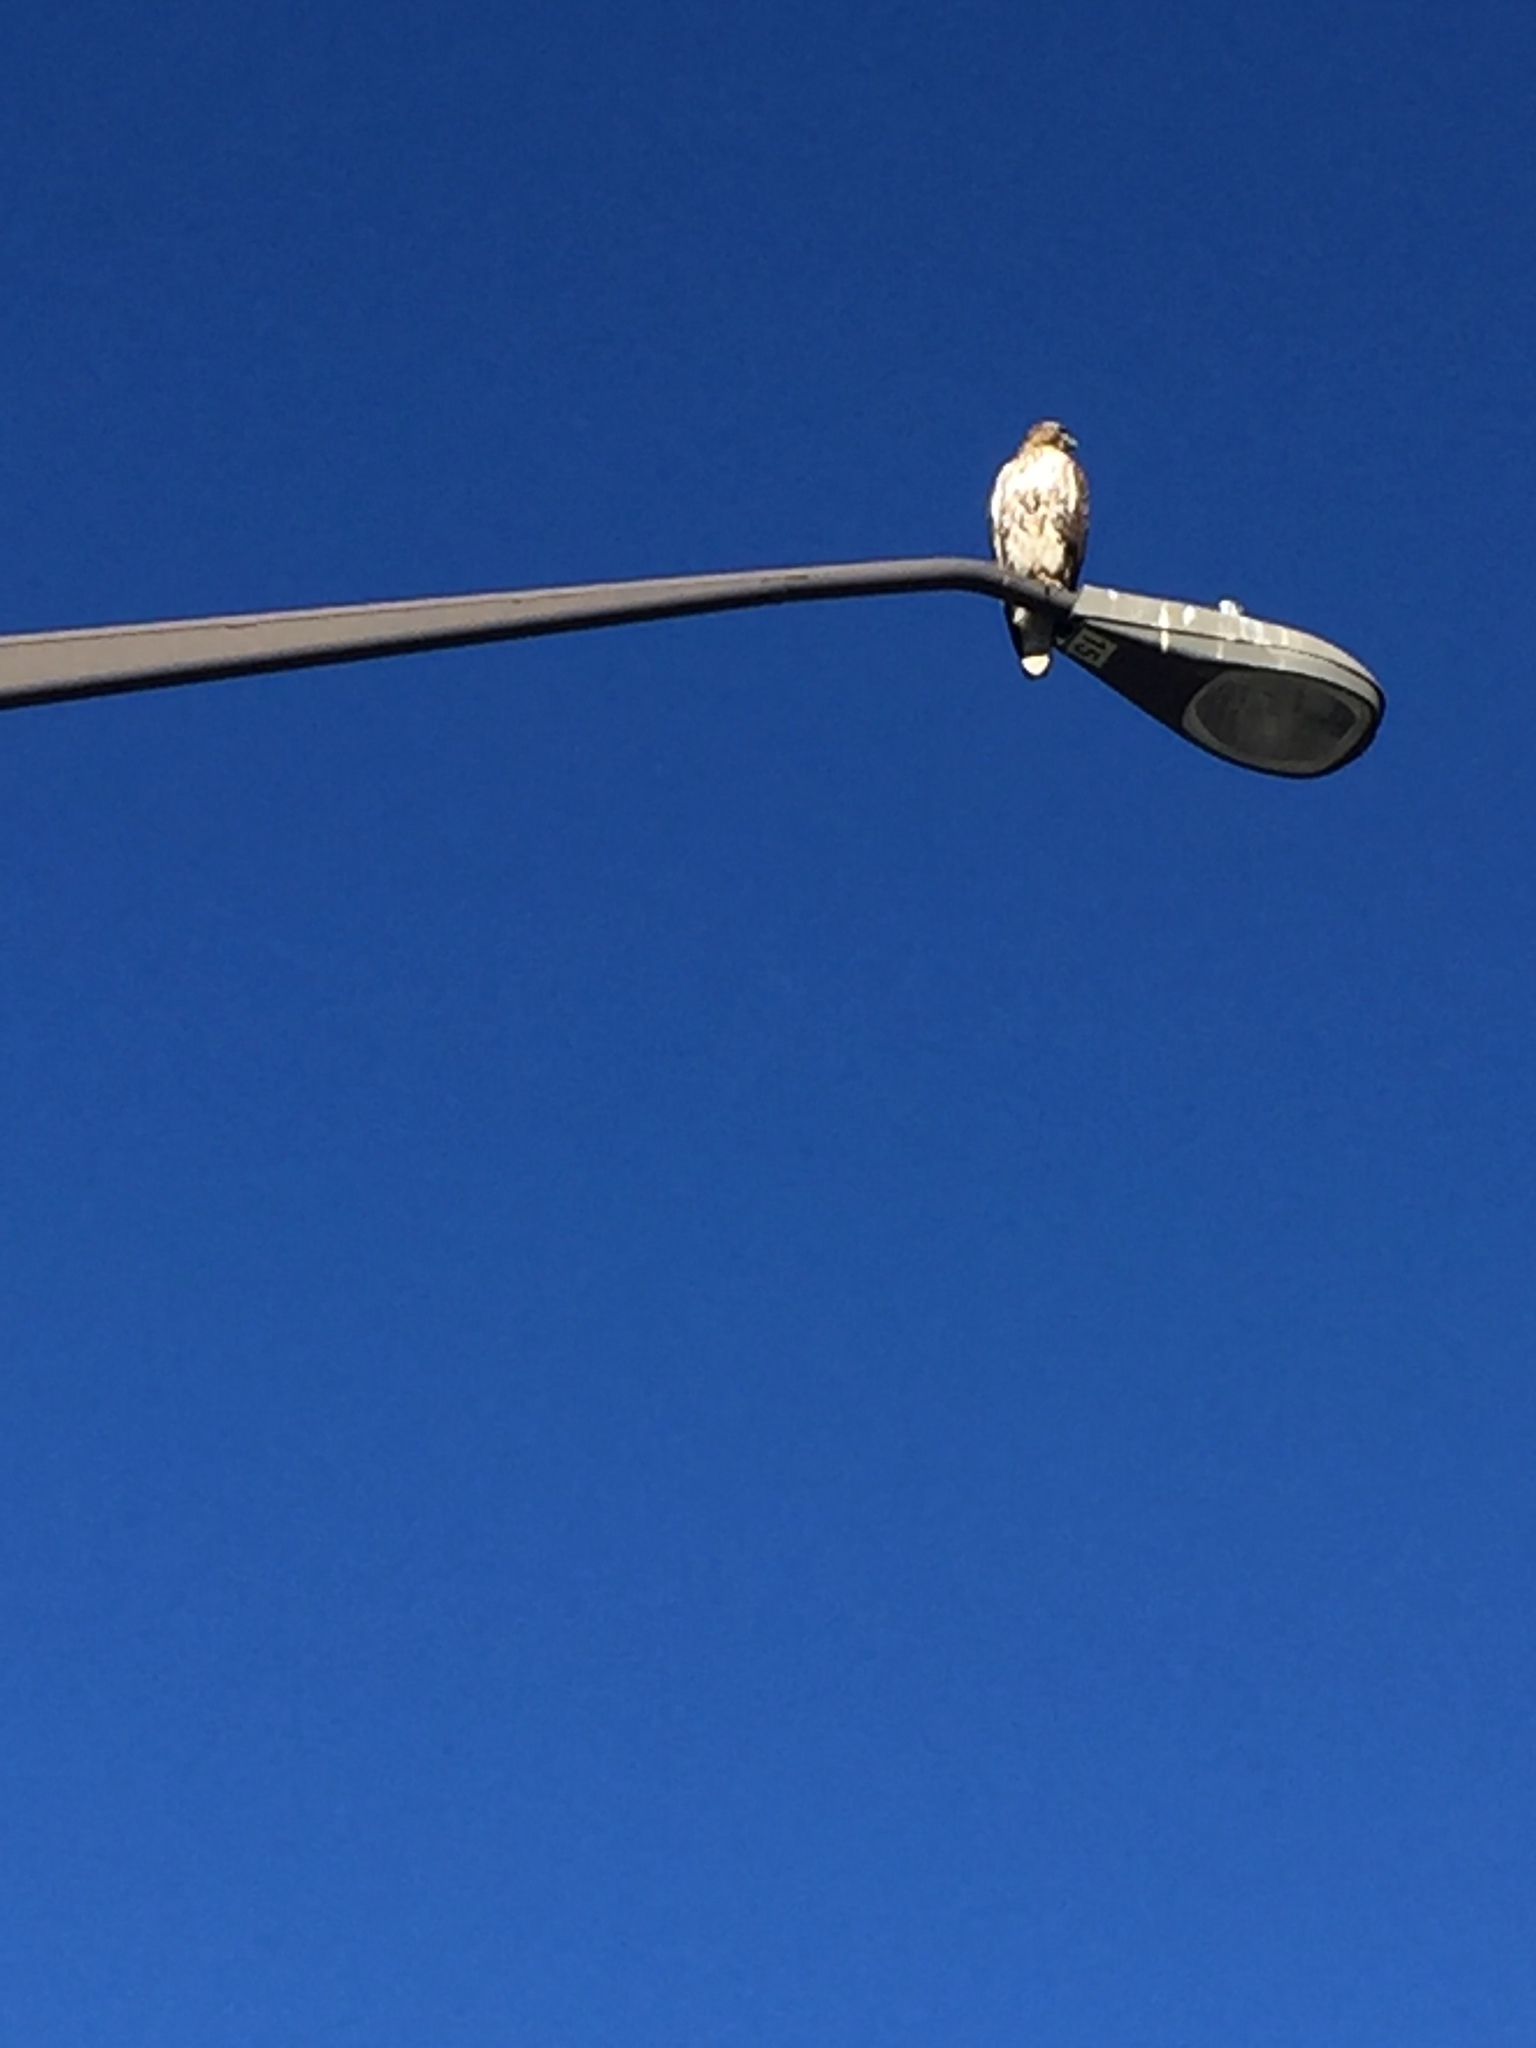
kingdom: Animalia
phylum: Chordata
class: Aves
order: Accipitriformes
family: Accipitridae
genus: Buteo
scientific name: Buteo jamaicensis
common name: Red-tailed hawk
